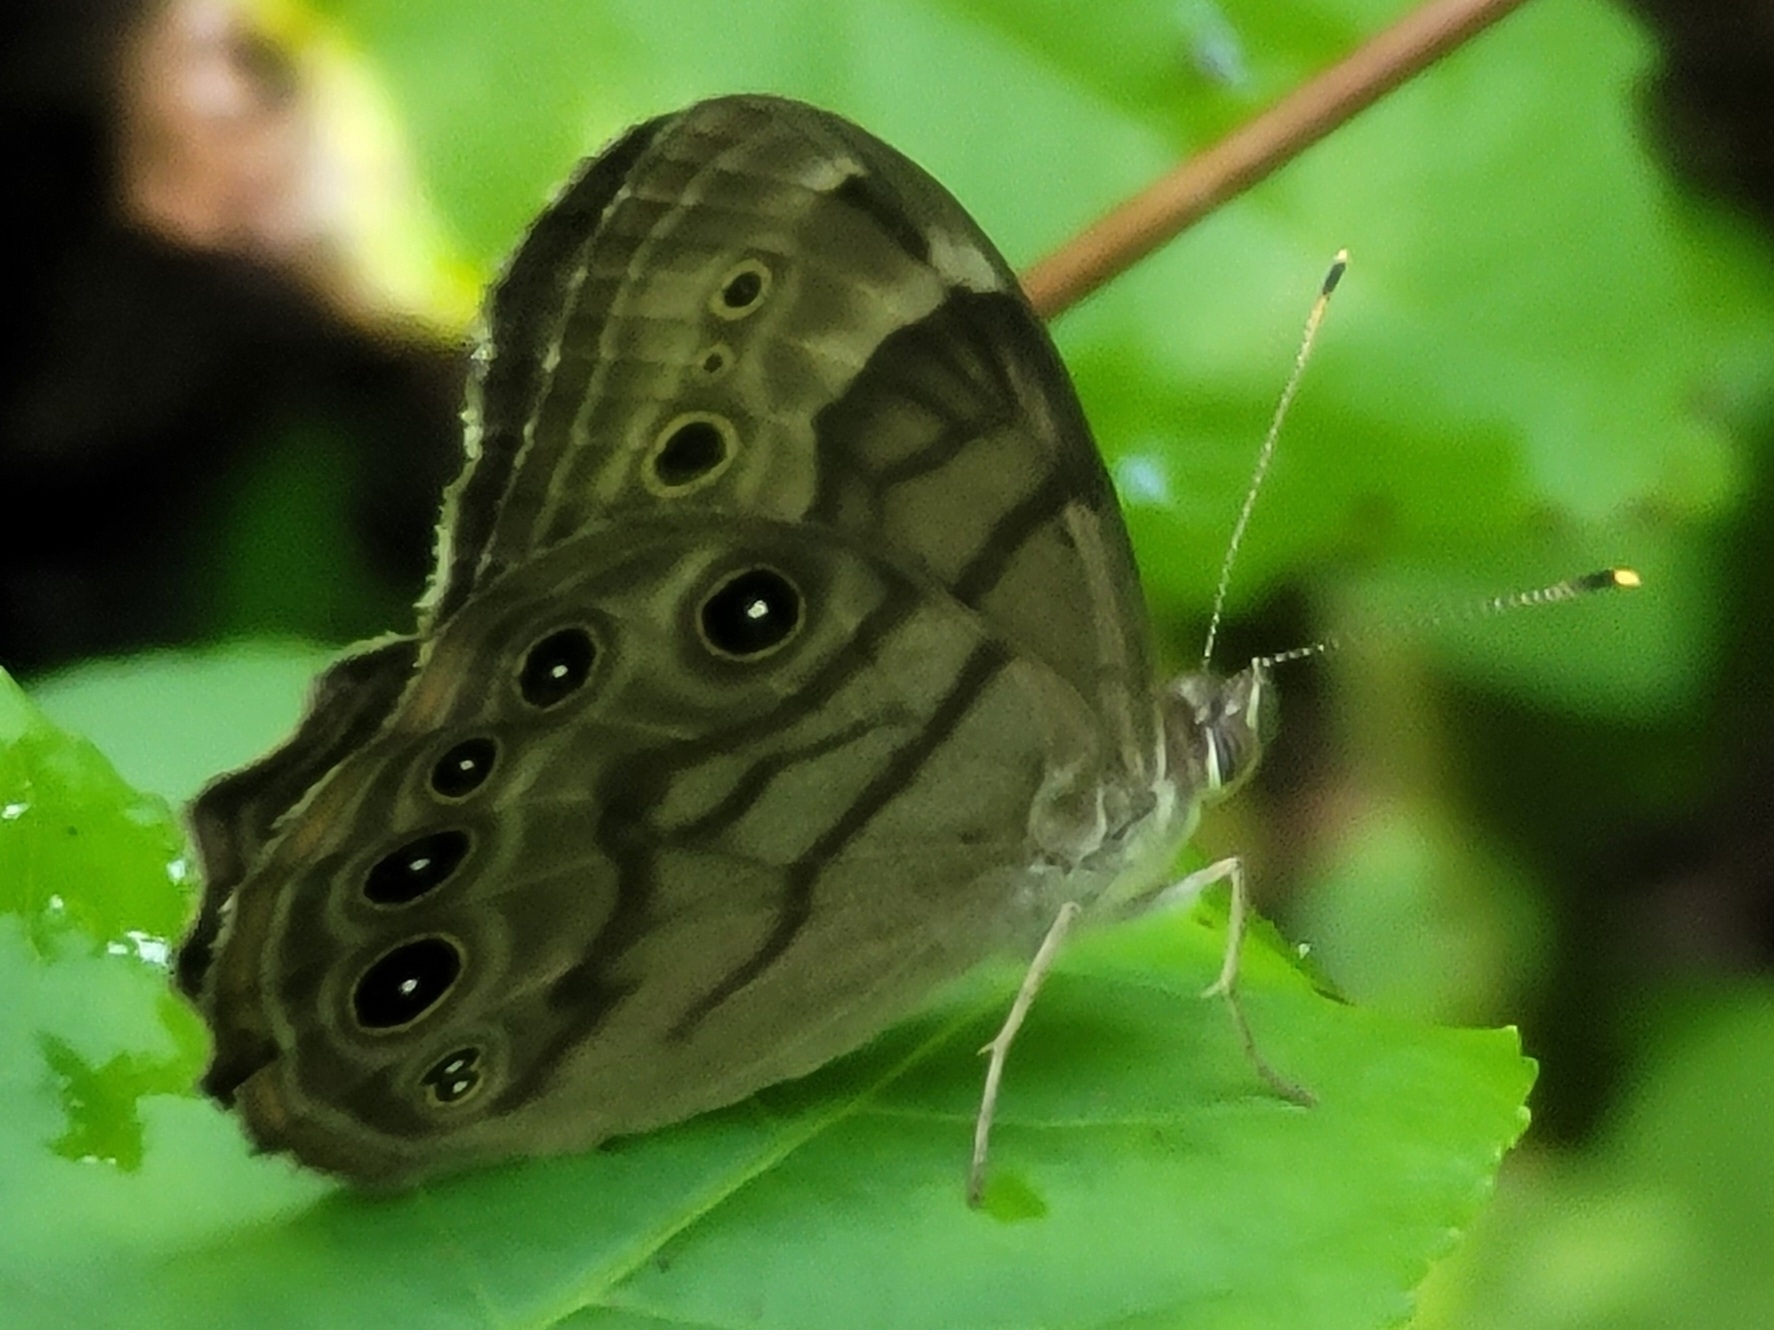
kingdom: Animalia
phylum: Arthropoda
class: Insecta
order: Lepidoptera
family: Nymphalidae
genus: Lethe
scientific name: Lethe anthedon
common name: Northern pearly-eye
